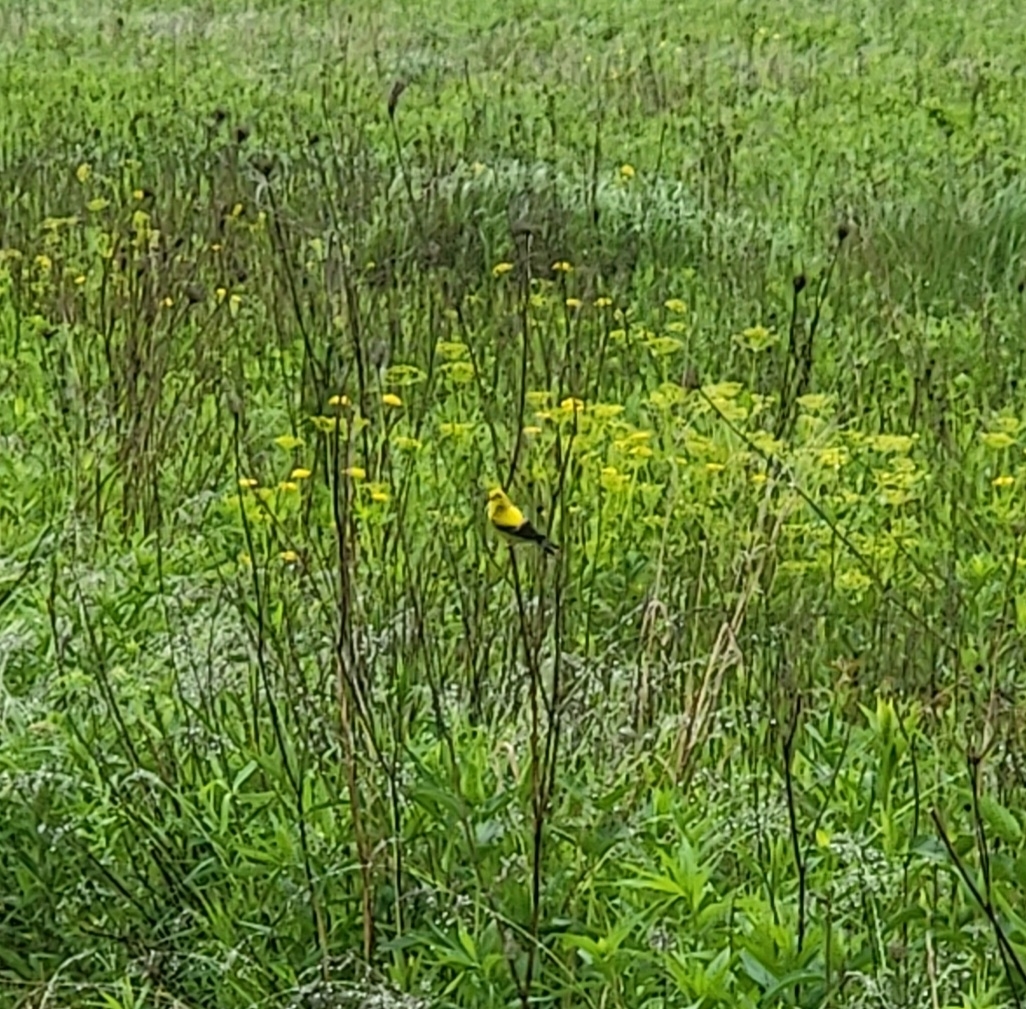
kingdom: Animalia
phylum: Chordata
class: Aves
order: Passeriformes
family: Fringillidae
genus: Spinus
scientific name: Spinus tristis
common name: American goldfinch
